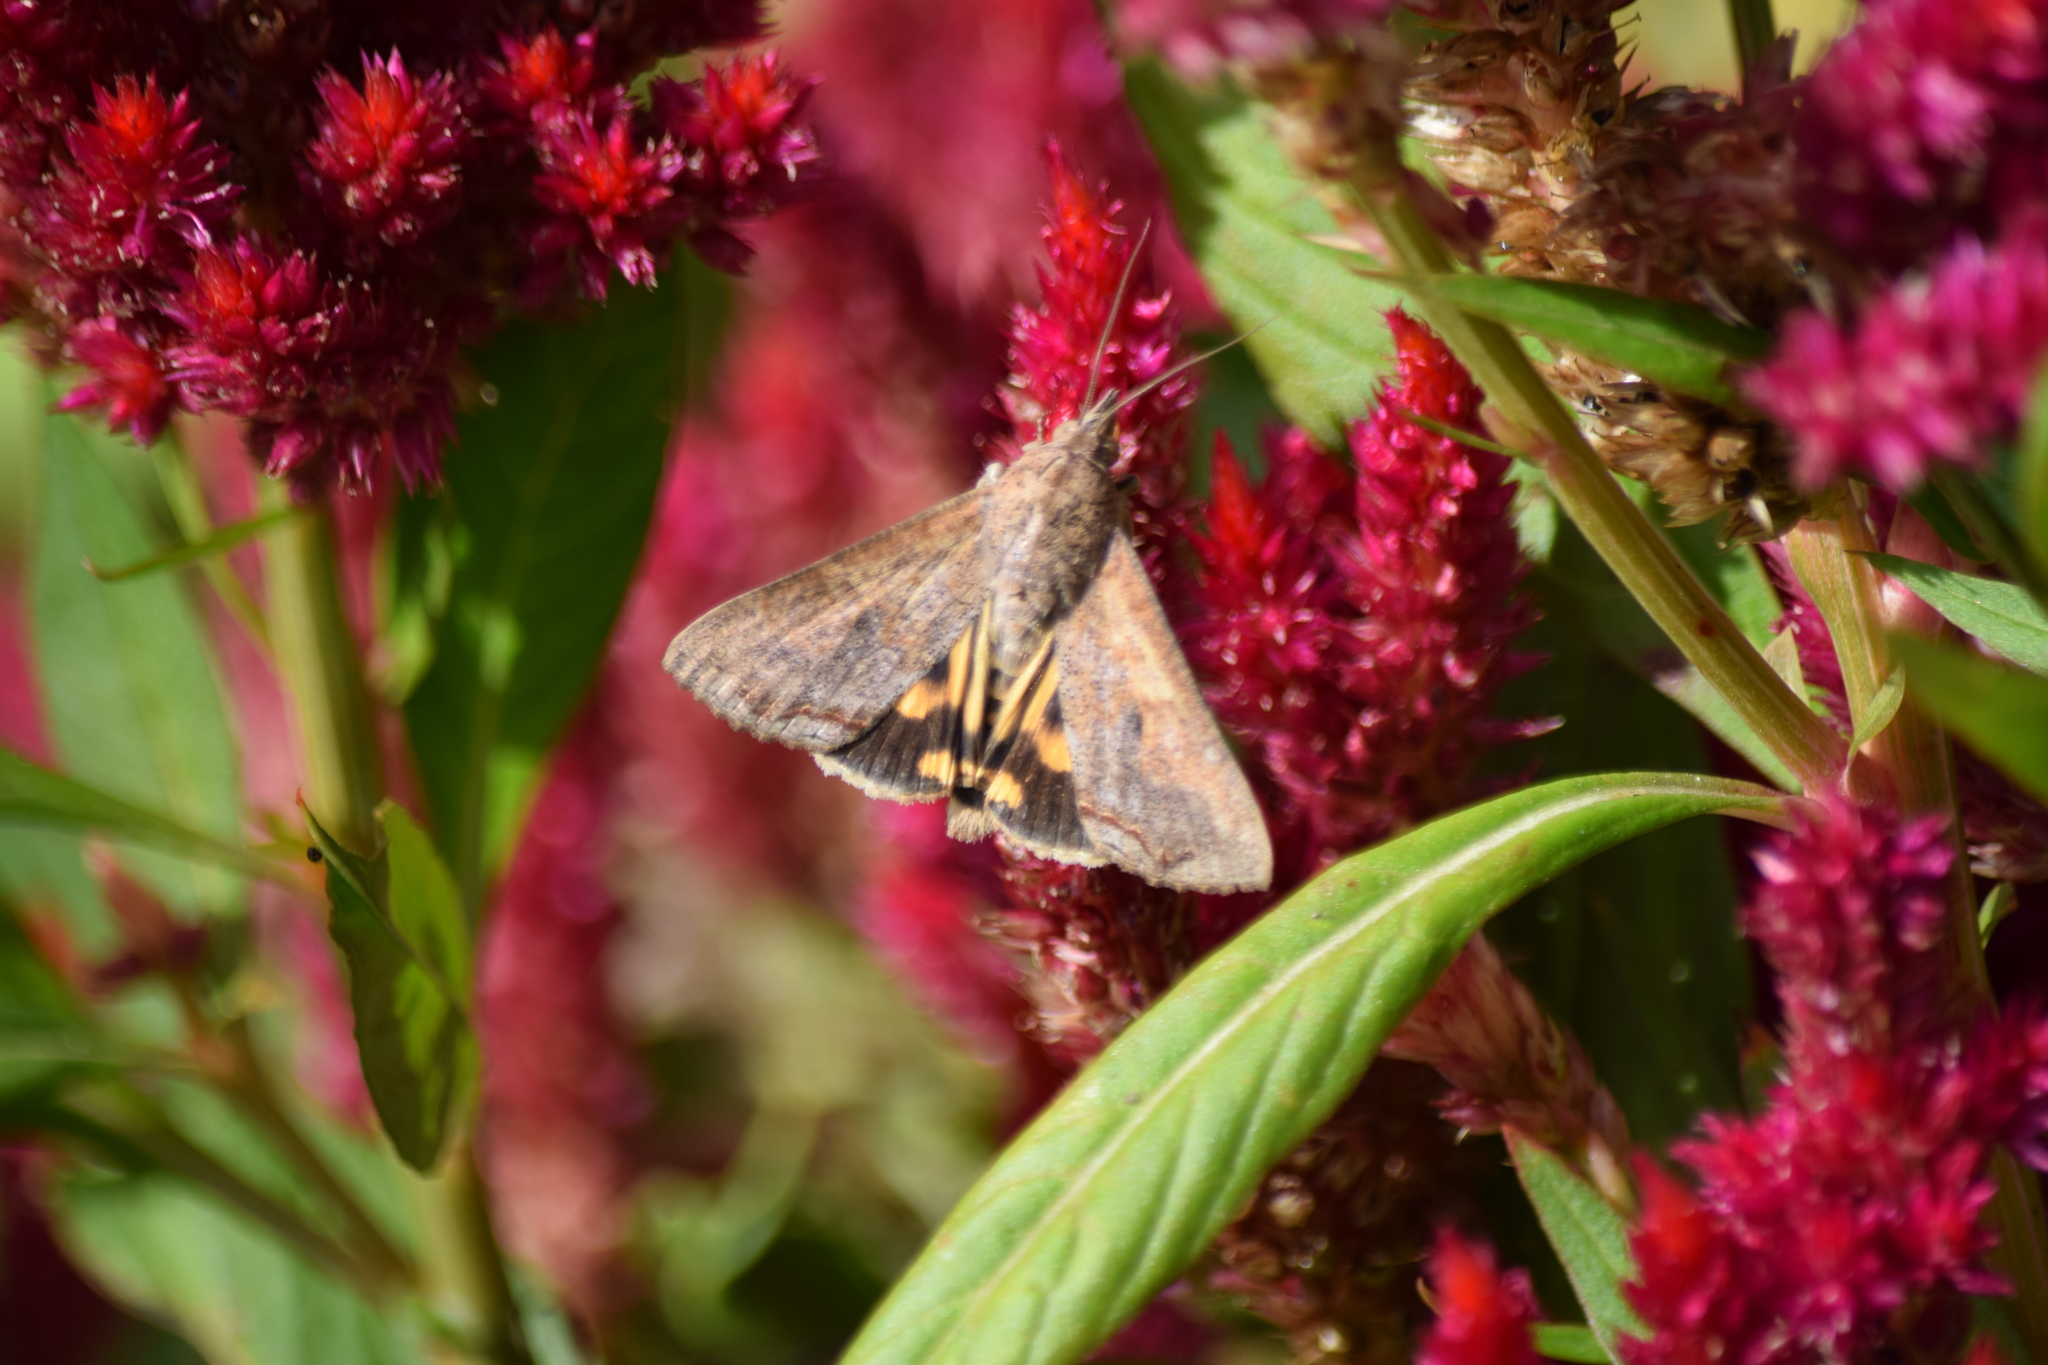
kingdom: Animalia
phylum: Arthropoda
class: Insecta
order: Lepidoptera
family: Erebidae
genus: Hypocala
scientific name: Hypocala andremona
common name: Hypocala moth
